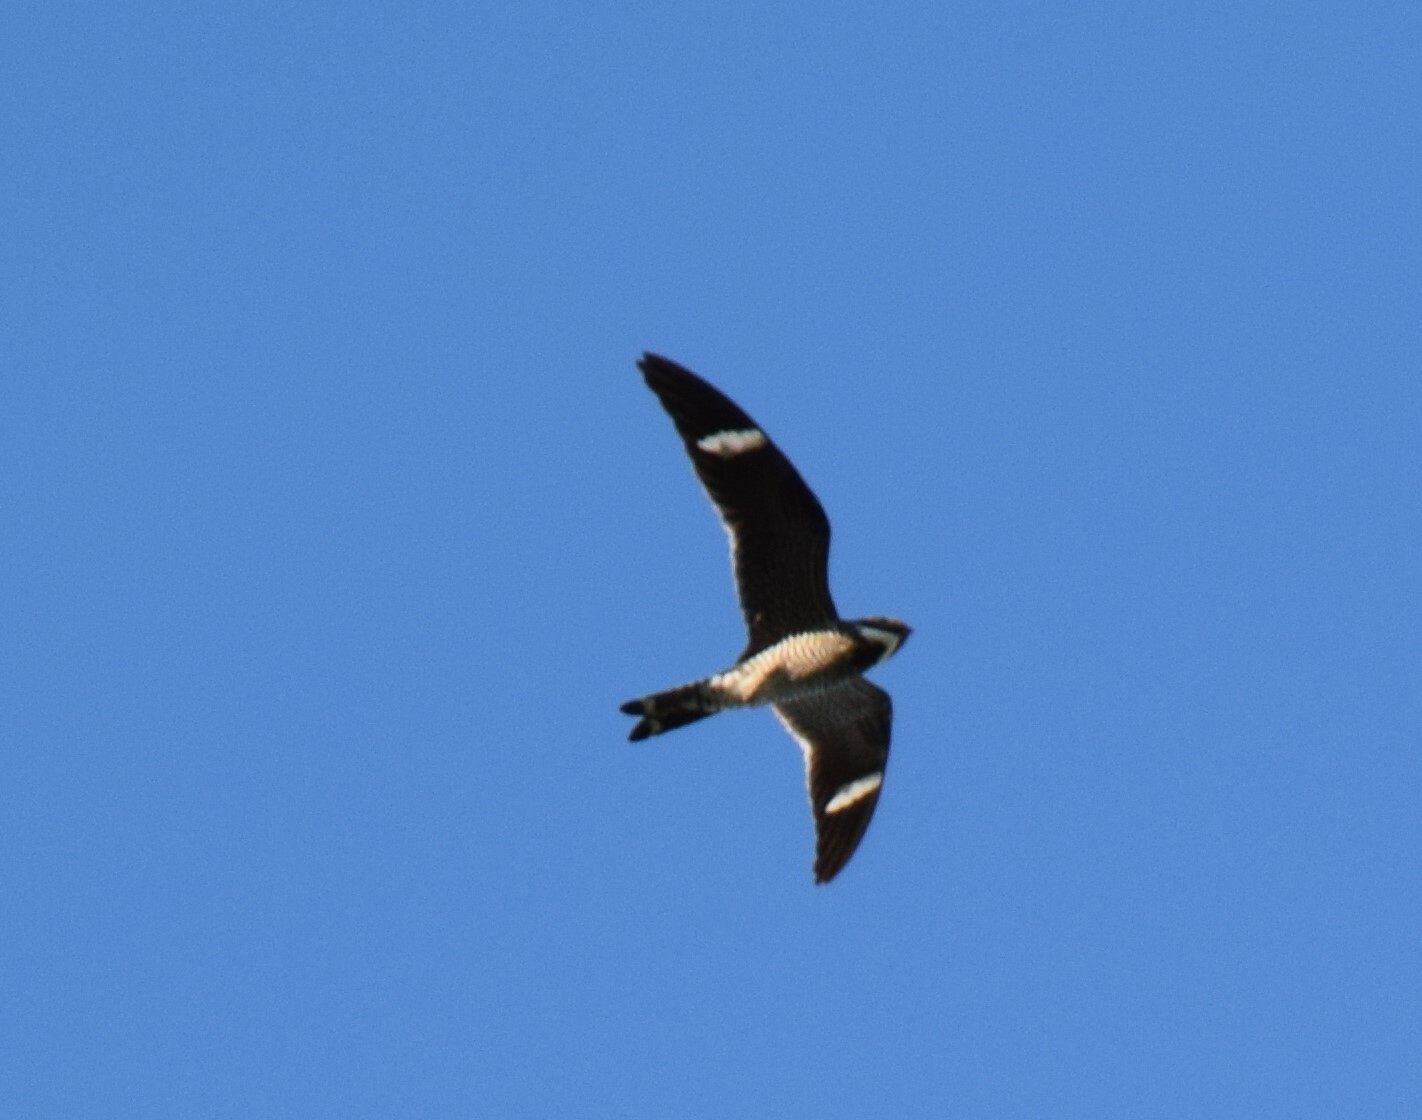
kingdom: Animalia
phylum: Chordata
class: Aves
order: Caprimulgiformes
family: Caprimulgidae
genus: Chordeiles
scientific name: Chordeiles minor
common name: Common nighthawk
